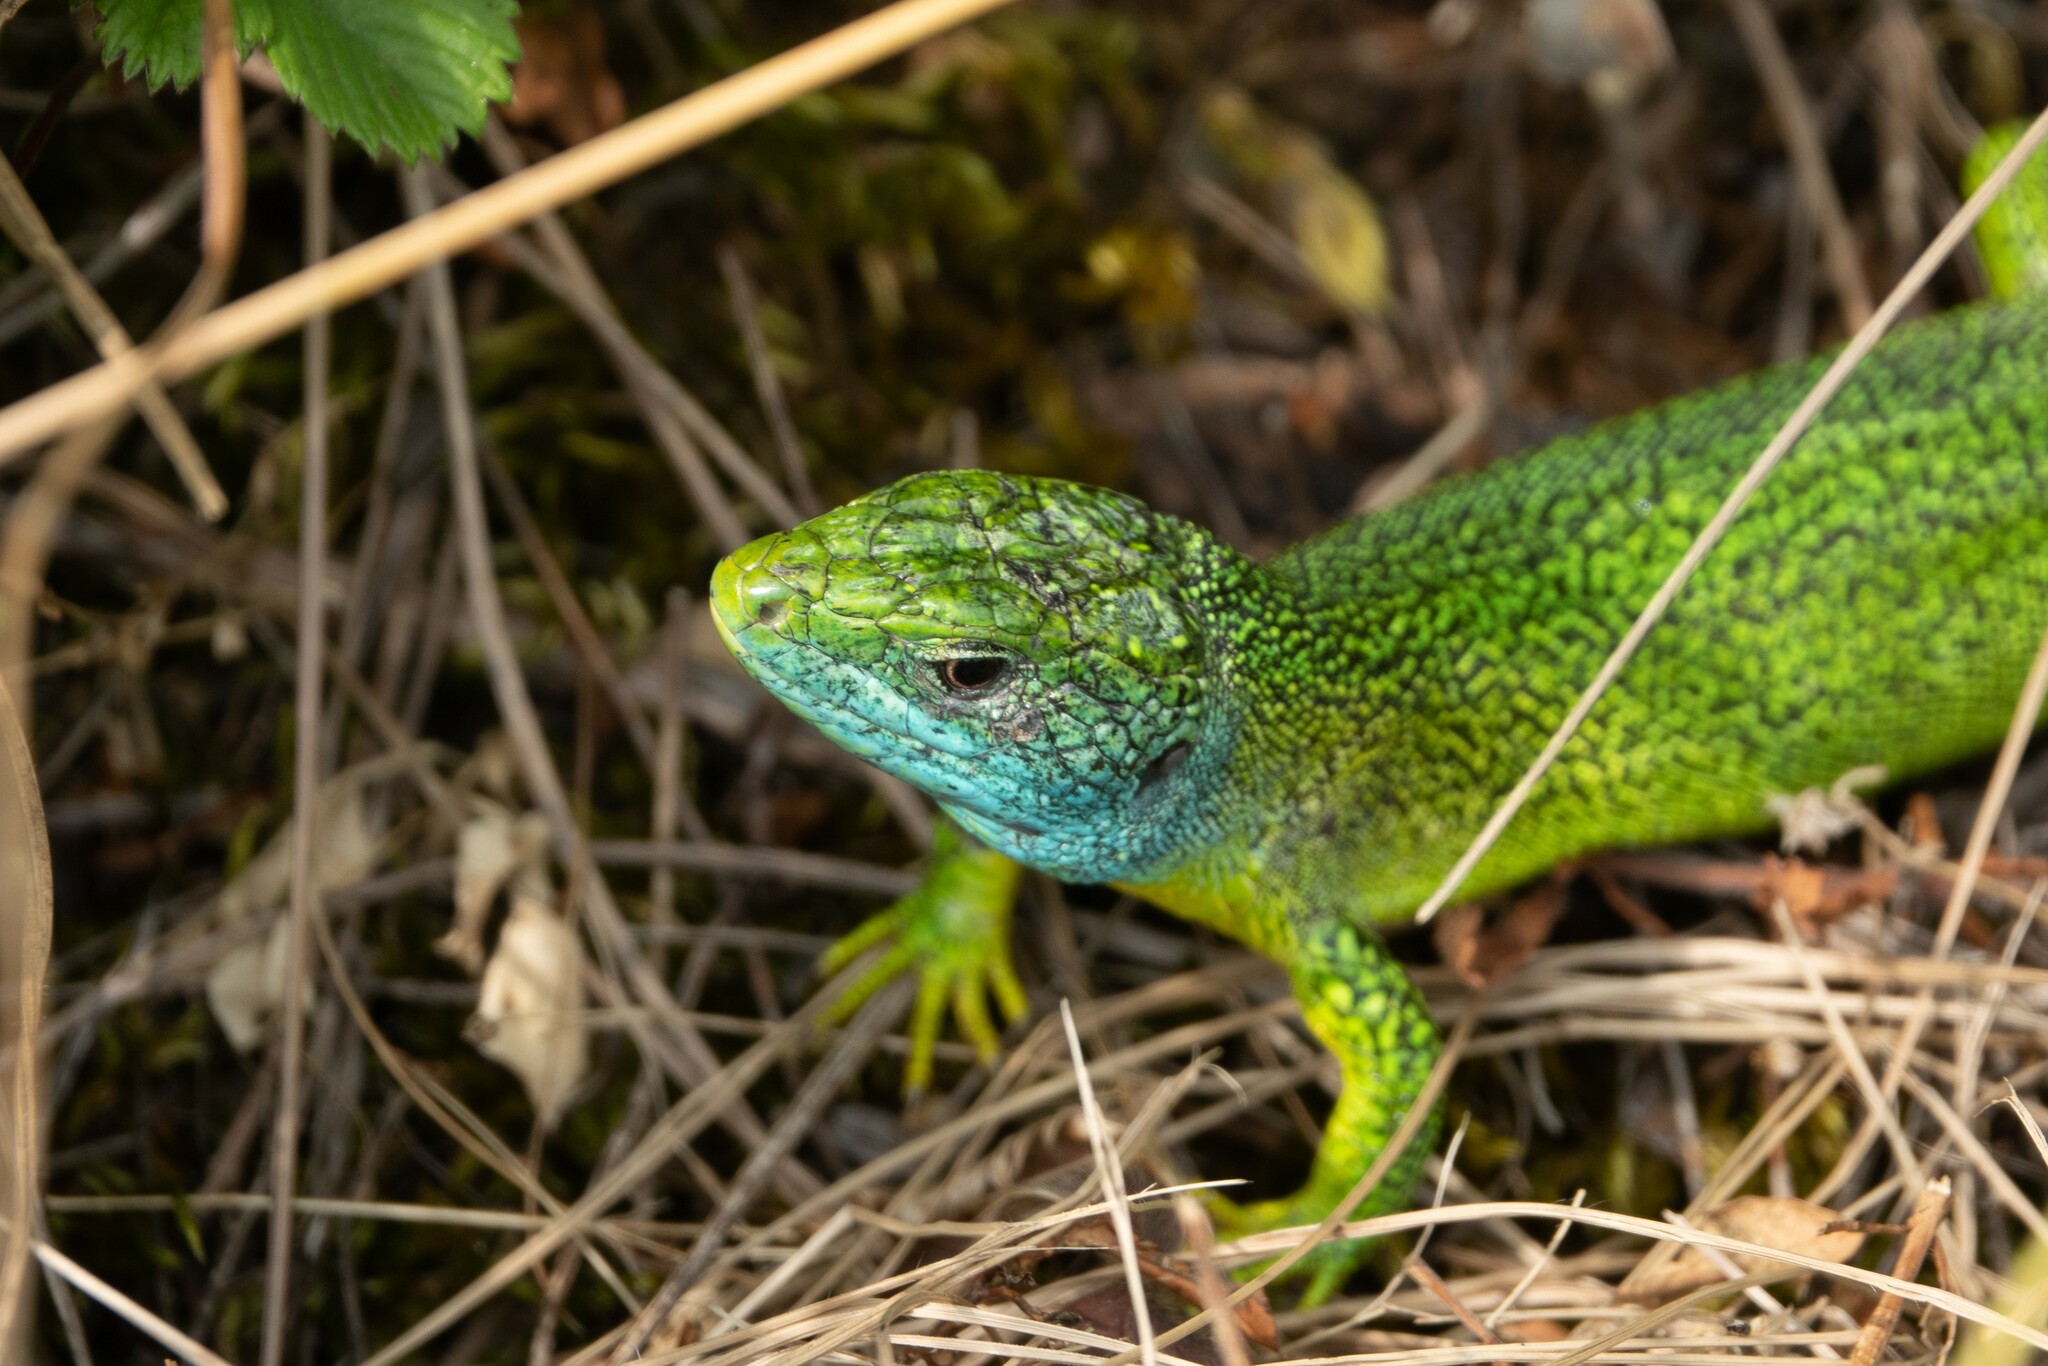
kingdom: Animalia
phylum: Chordata
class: Squamata
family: Lacertidae
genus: Lacerta
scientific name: Lacerta bilineata
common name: Western green lizard
